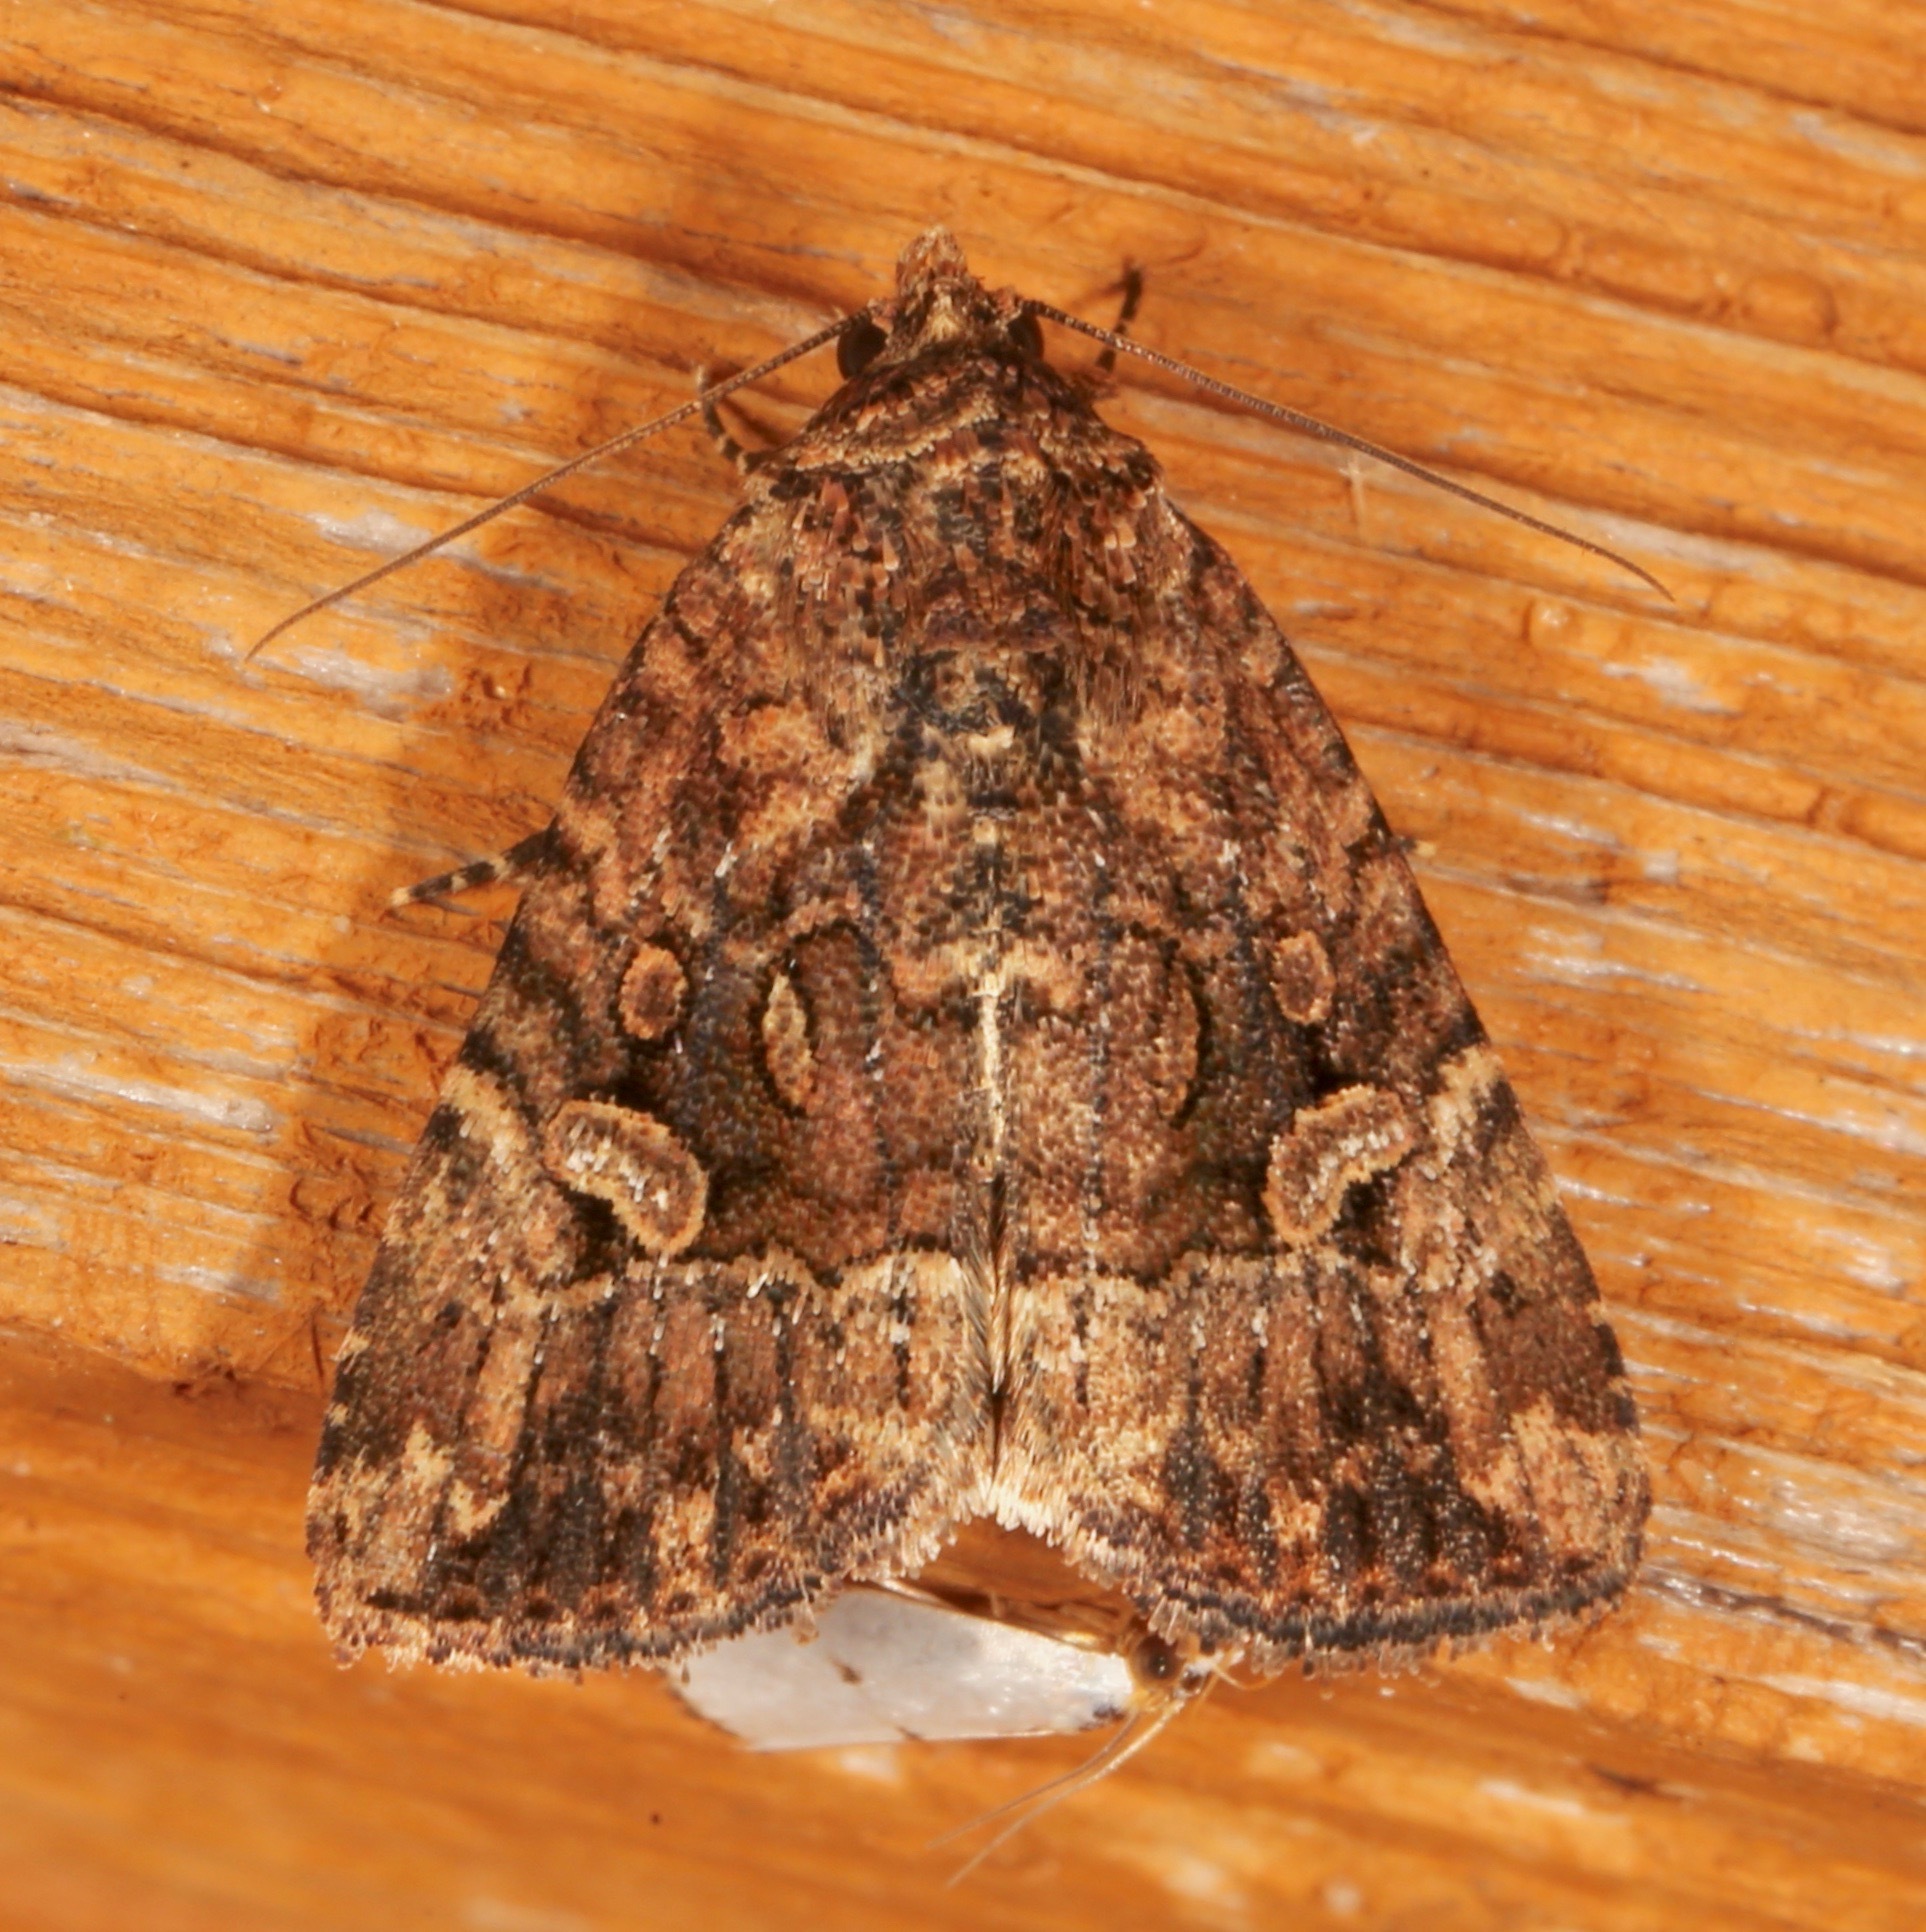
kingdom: Animalia
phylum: Arthropoda
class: Insecta
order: Lepidoptera
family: Noctuidae
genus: Elaphria
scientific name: Elaphria exesa
